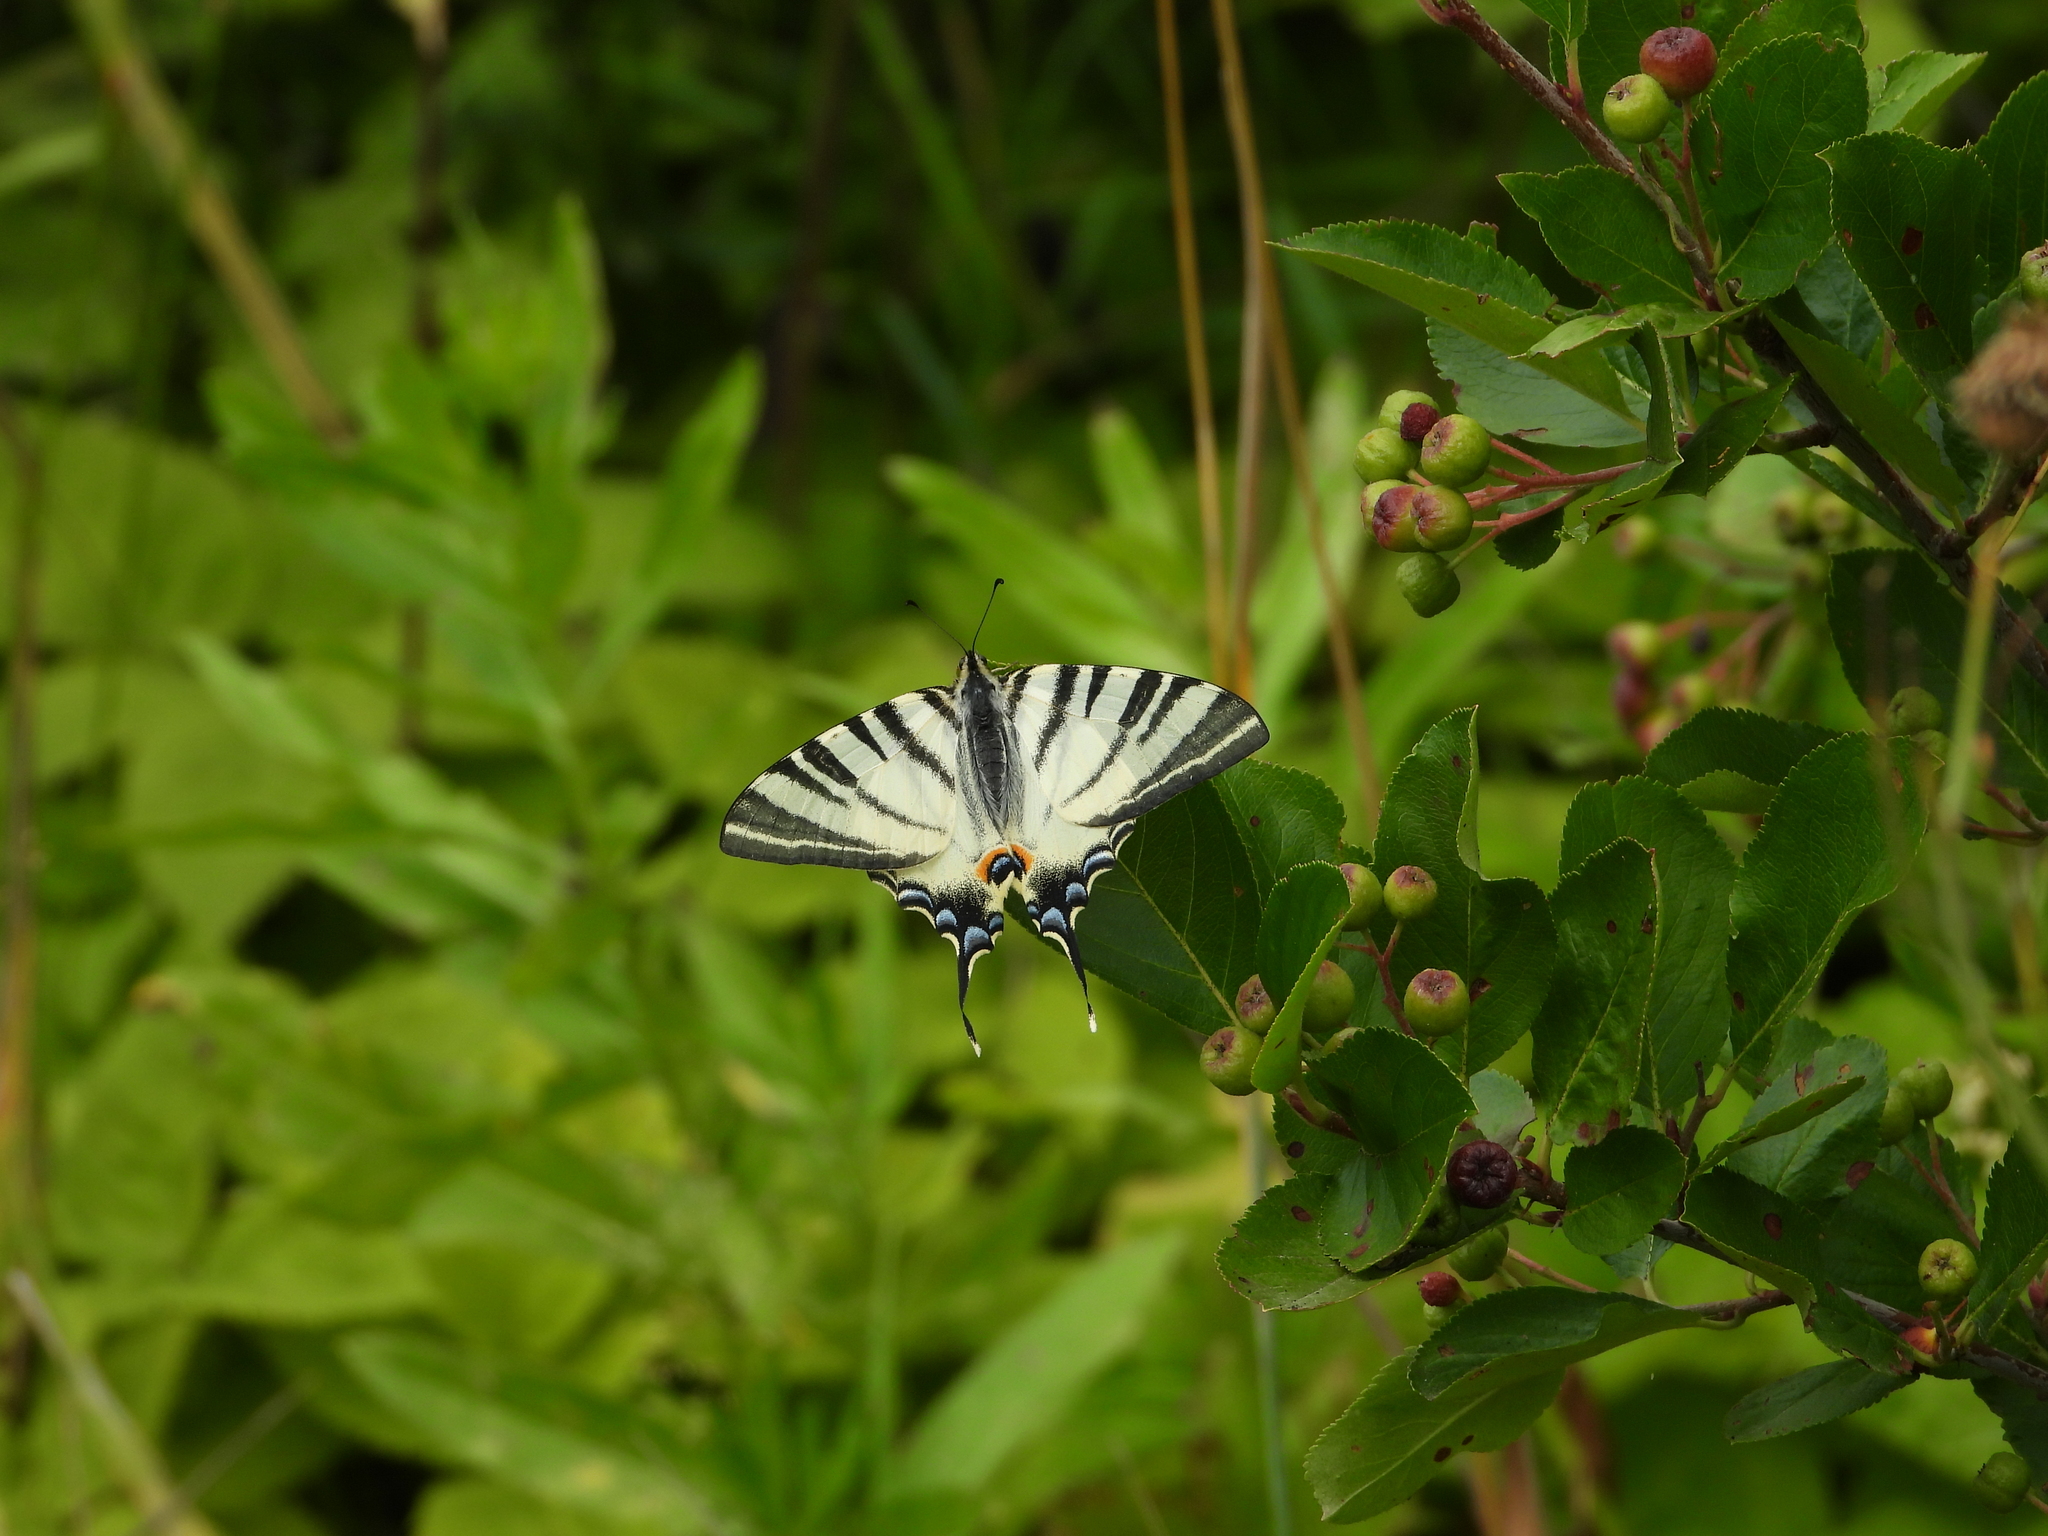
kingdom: Animalia
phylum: Arthropoda
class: Insecta
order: Lepidoptera
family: Papilionidae
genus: Iphiclides
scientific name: Iphiclides podalirius
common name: Scarce swallowtail
